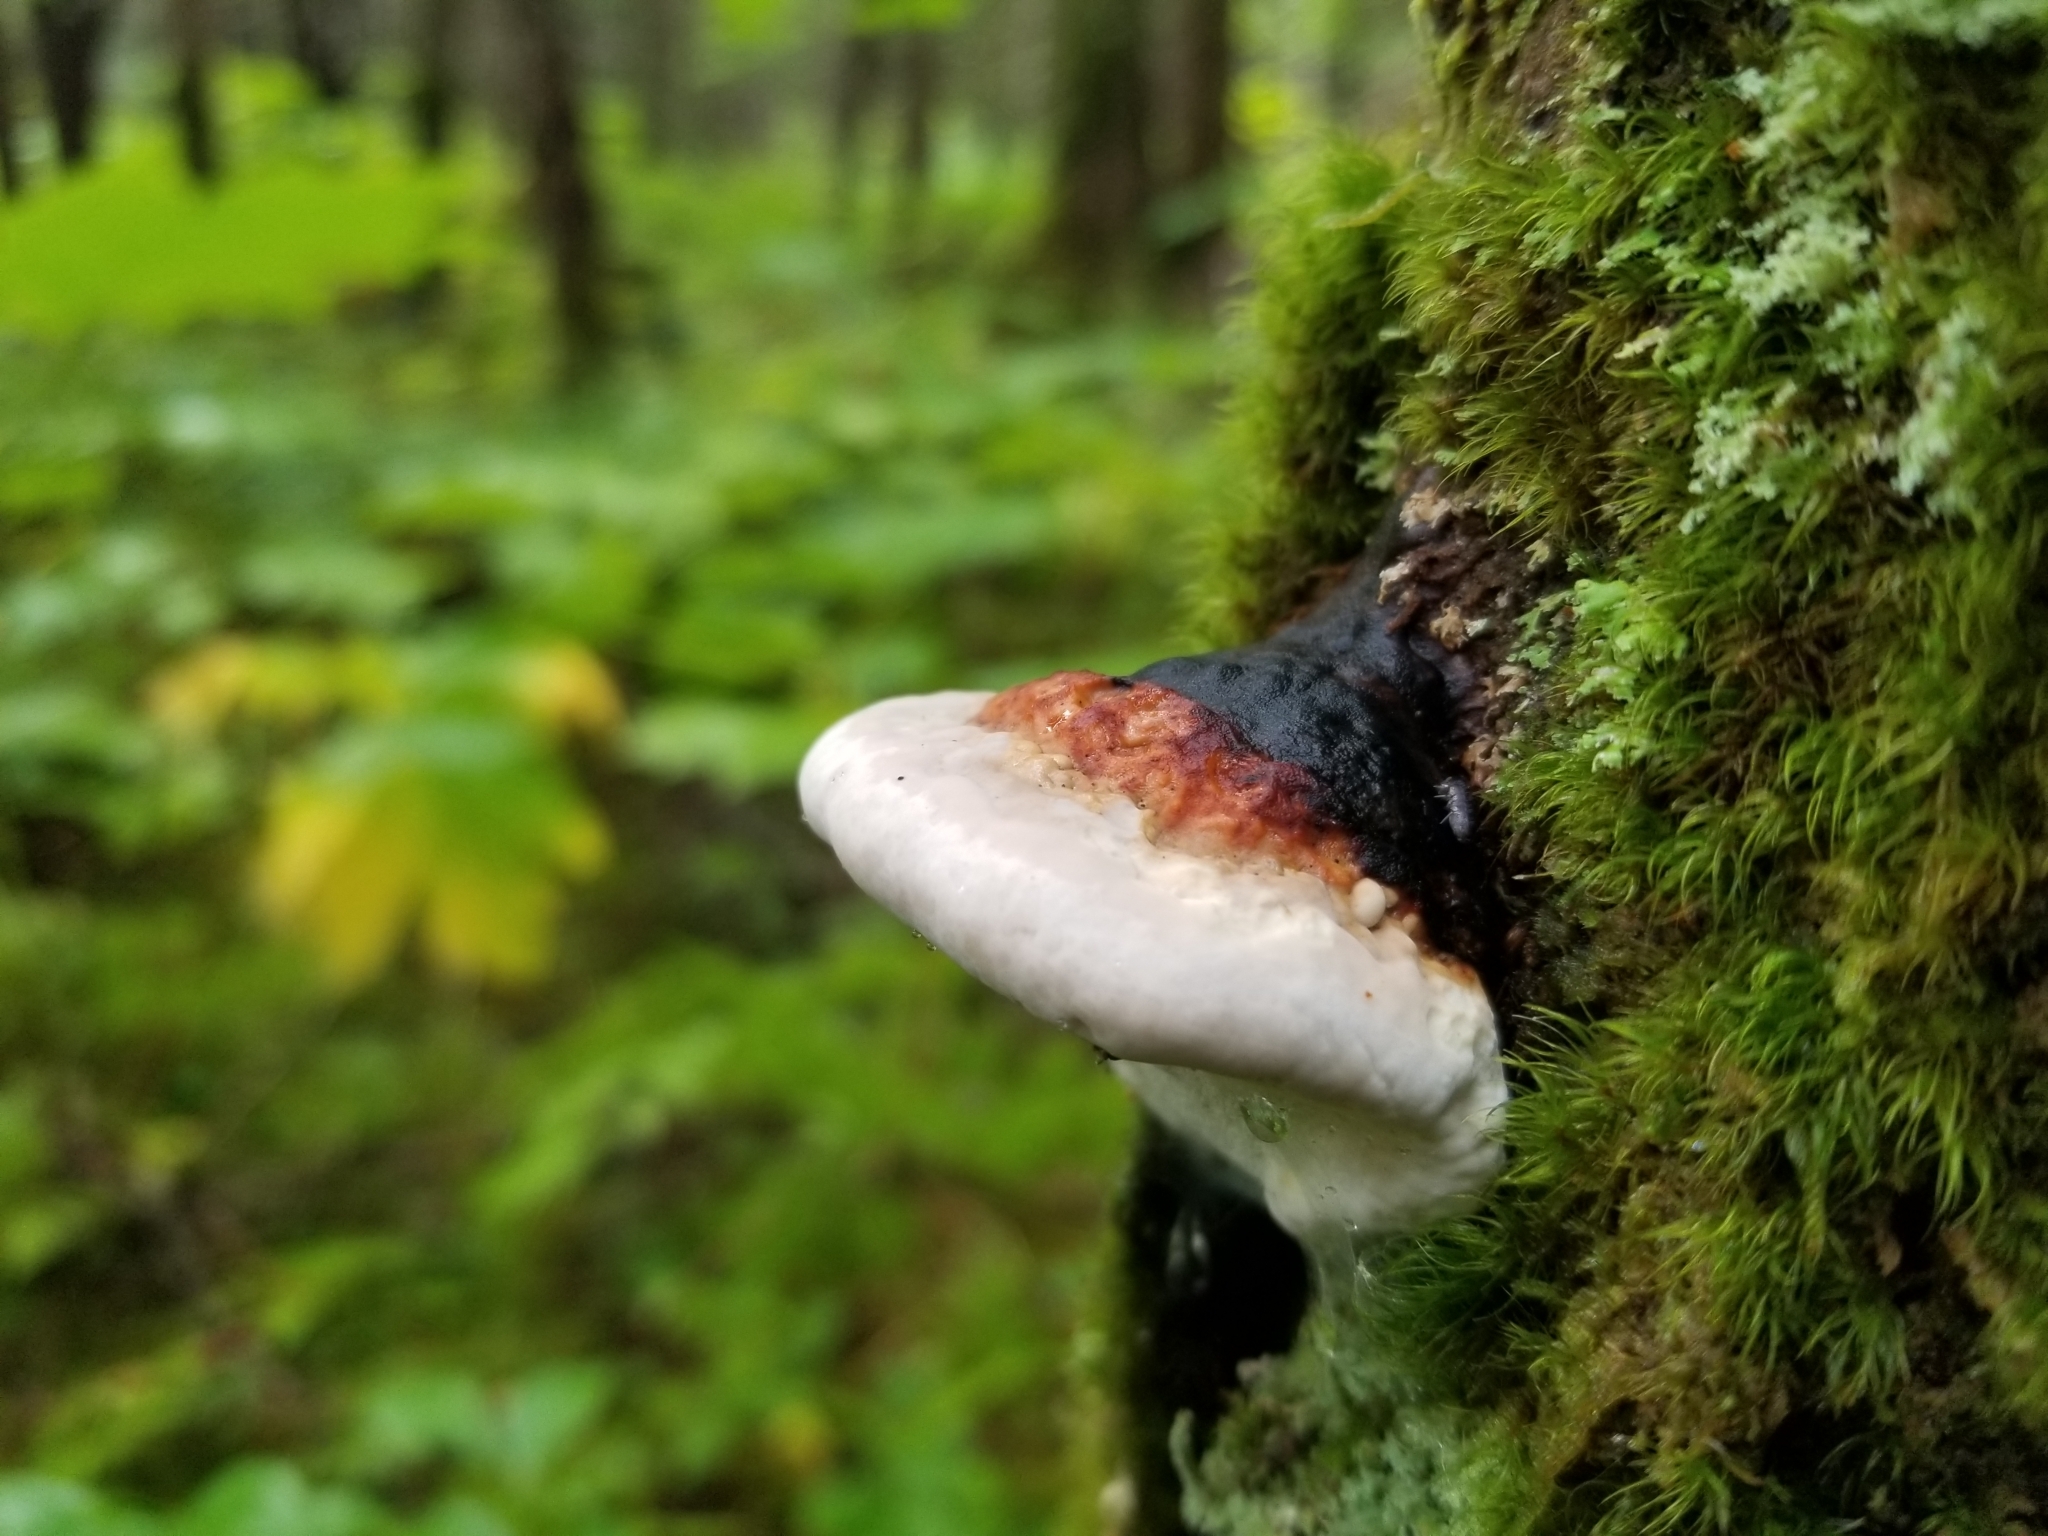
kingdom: Fungi
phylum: Basidiomycota
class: Agaricomycetes
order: Polyporales
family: Fomitopsidaceae
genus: Fomitopsis
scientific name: Fomitopsis mounceae
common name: Northern red belt
